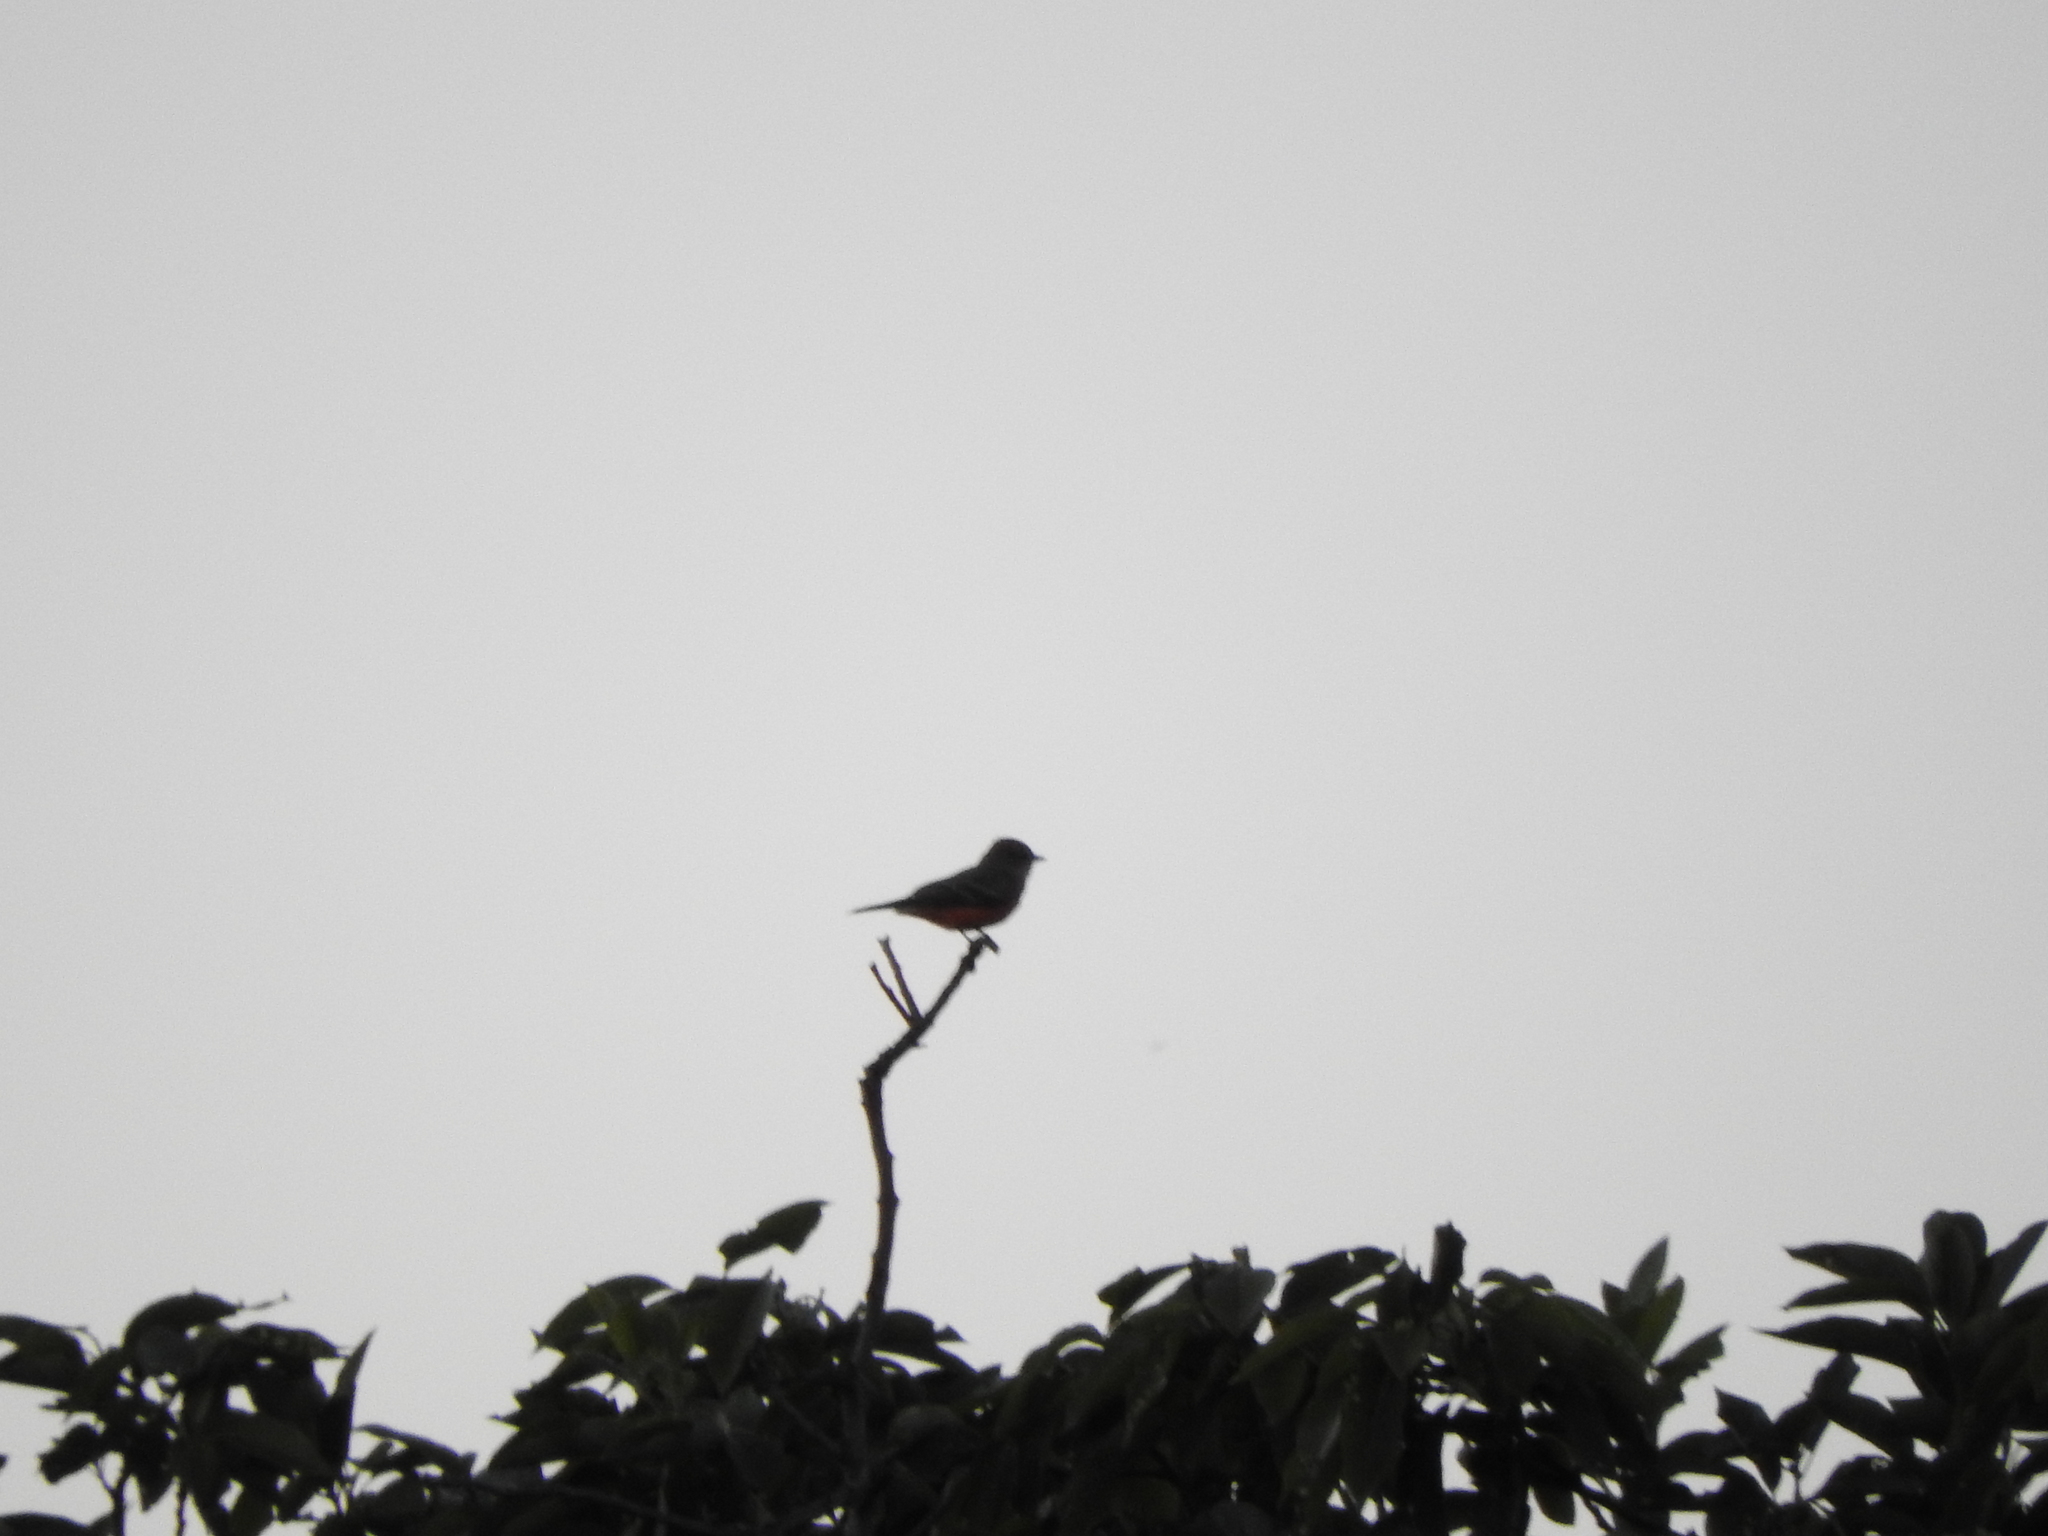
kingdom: Animalia
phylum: Chordata
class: Aves
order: Passeriformes
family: Tyrannidae
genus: Pyrocephalus
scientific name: Pyrocephalus rubinus
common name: Vermilion flycatcher
